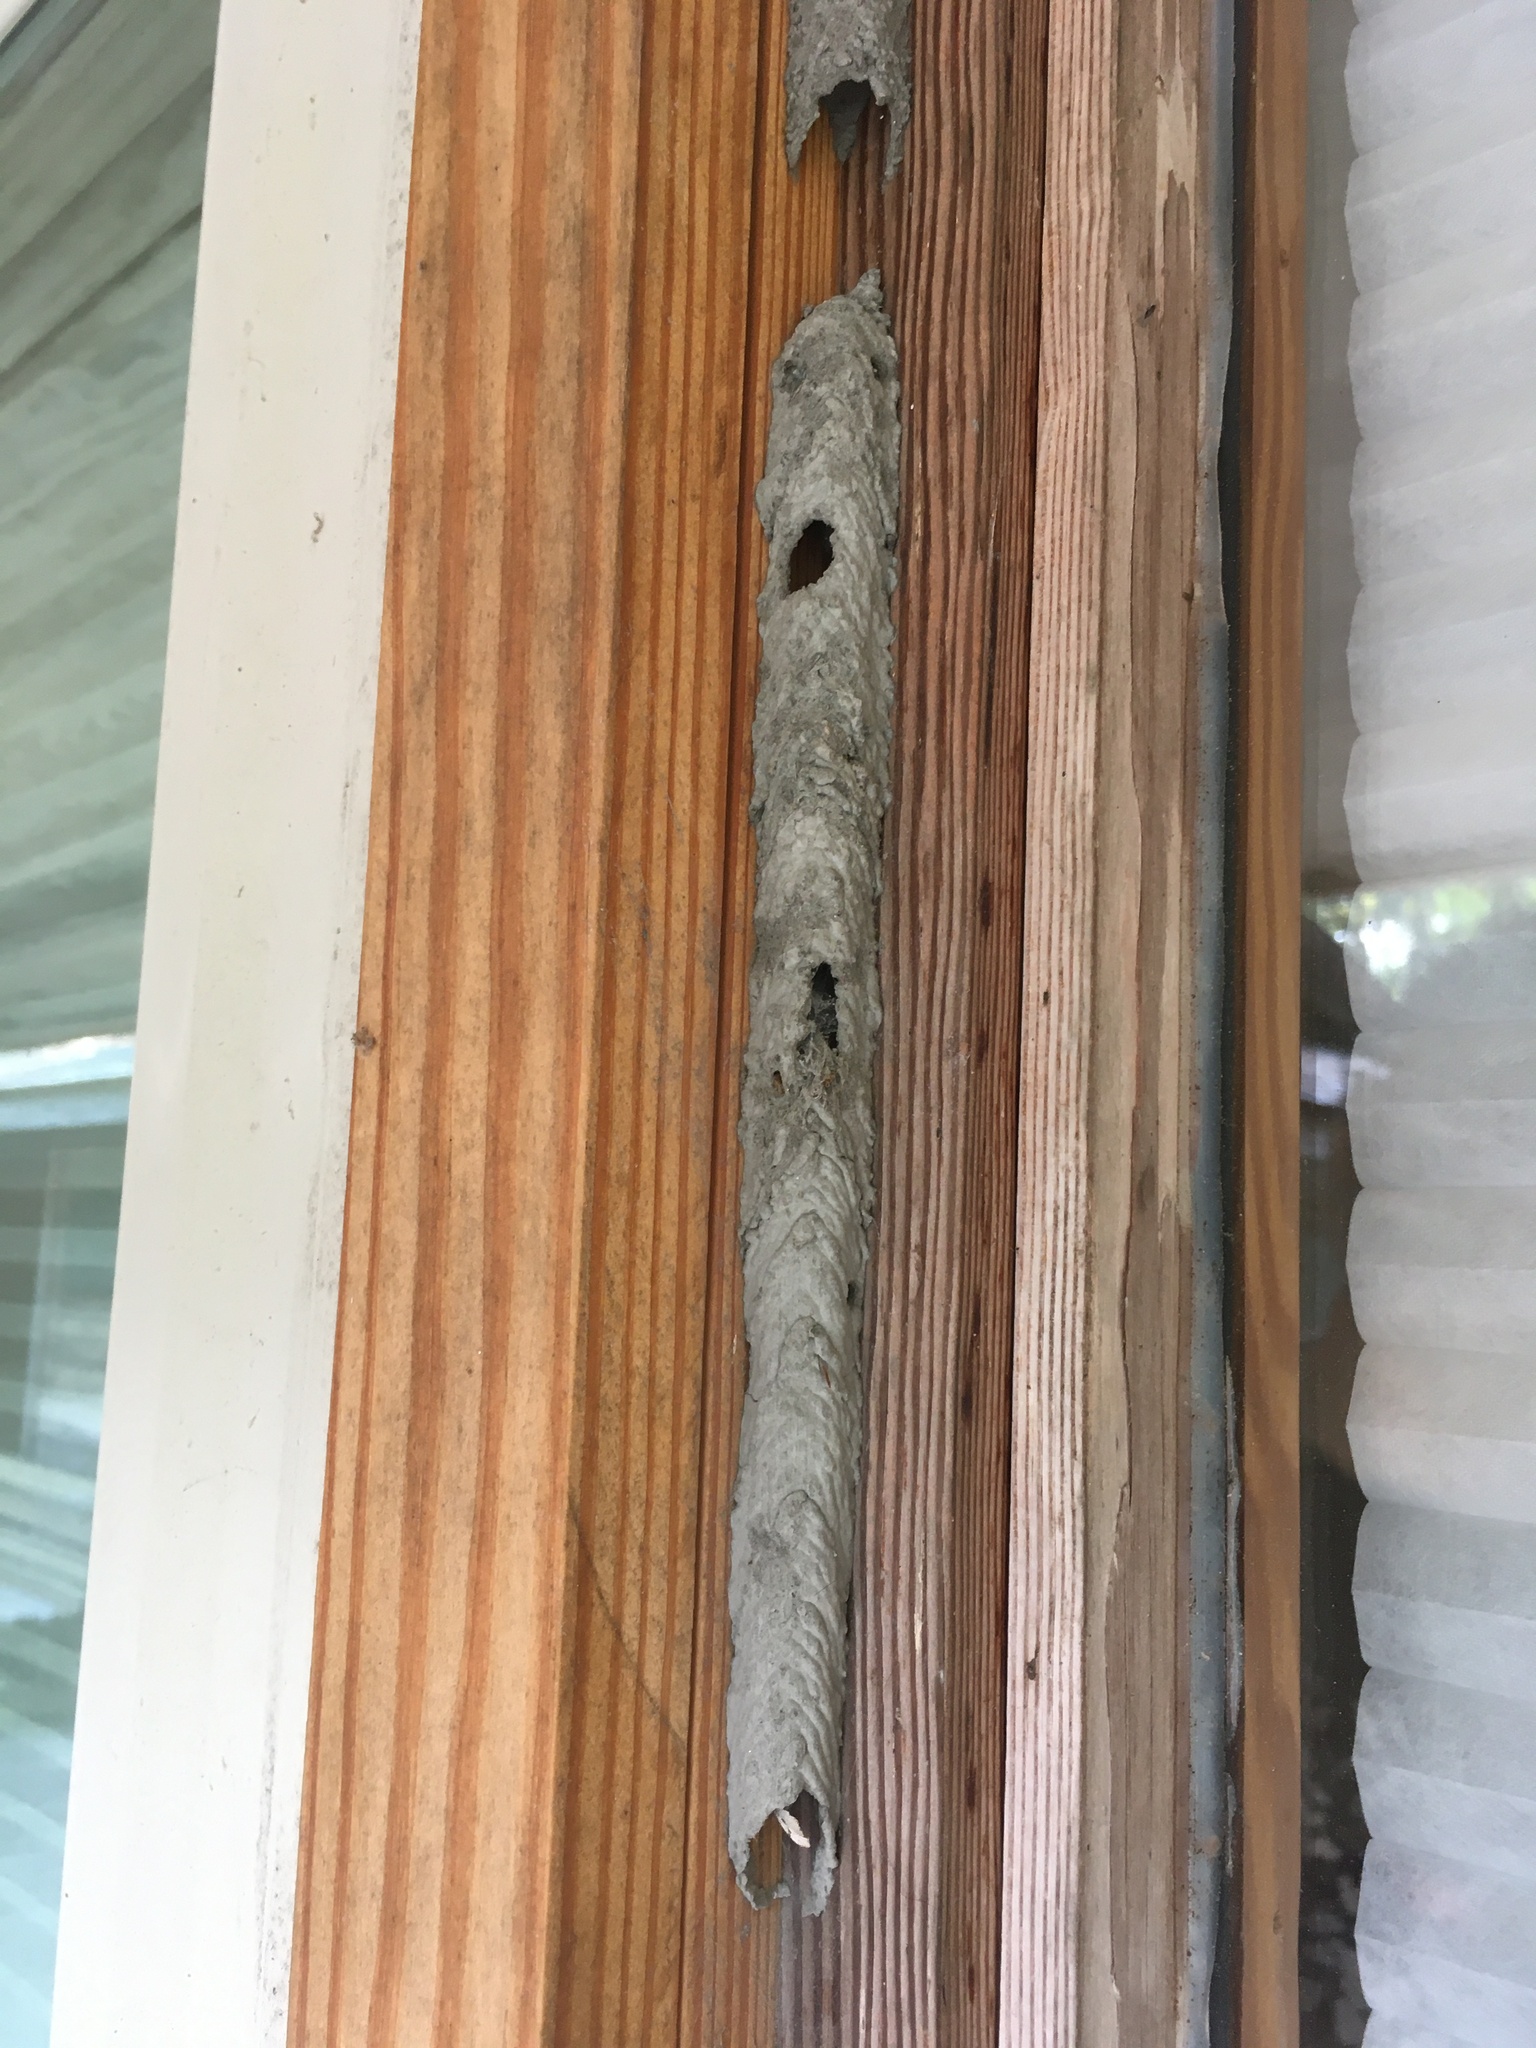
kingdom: Animalia
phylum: Arthropoda
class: Insecta
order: Hymenoptera
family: Crabronidae
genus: Trypoxylon
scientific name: Trypoxylon politum
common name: Organ-pipe mud-dauber wasp
